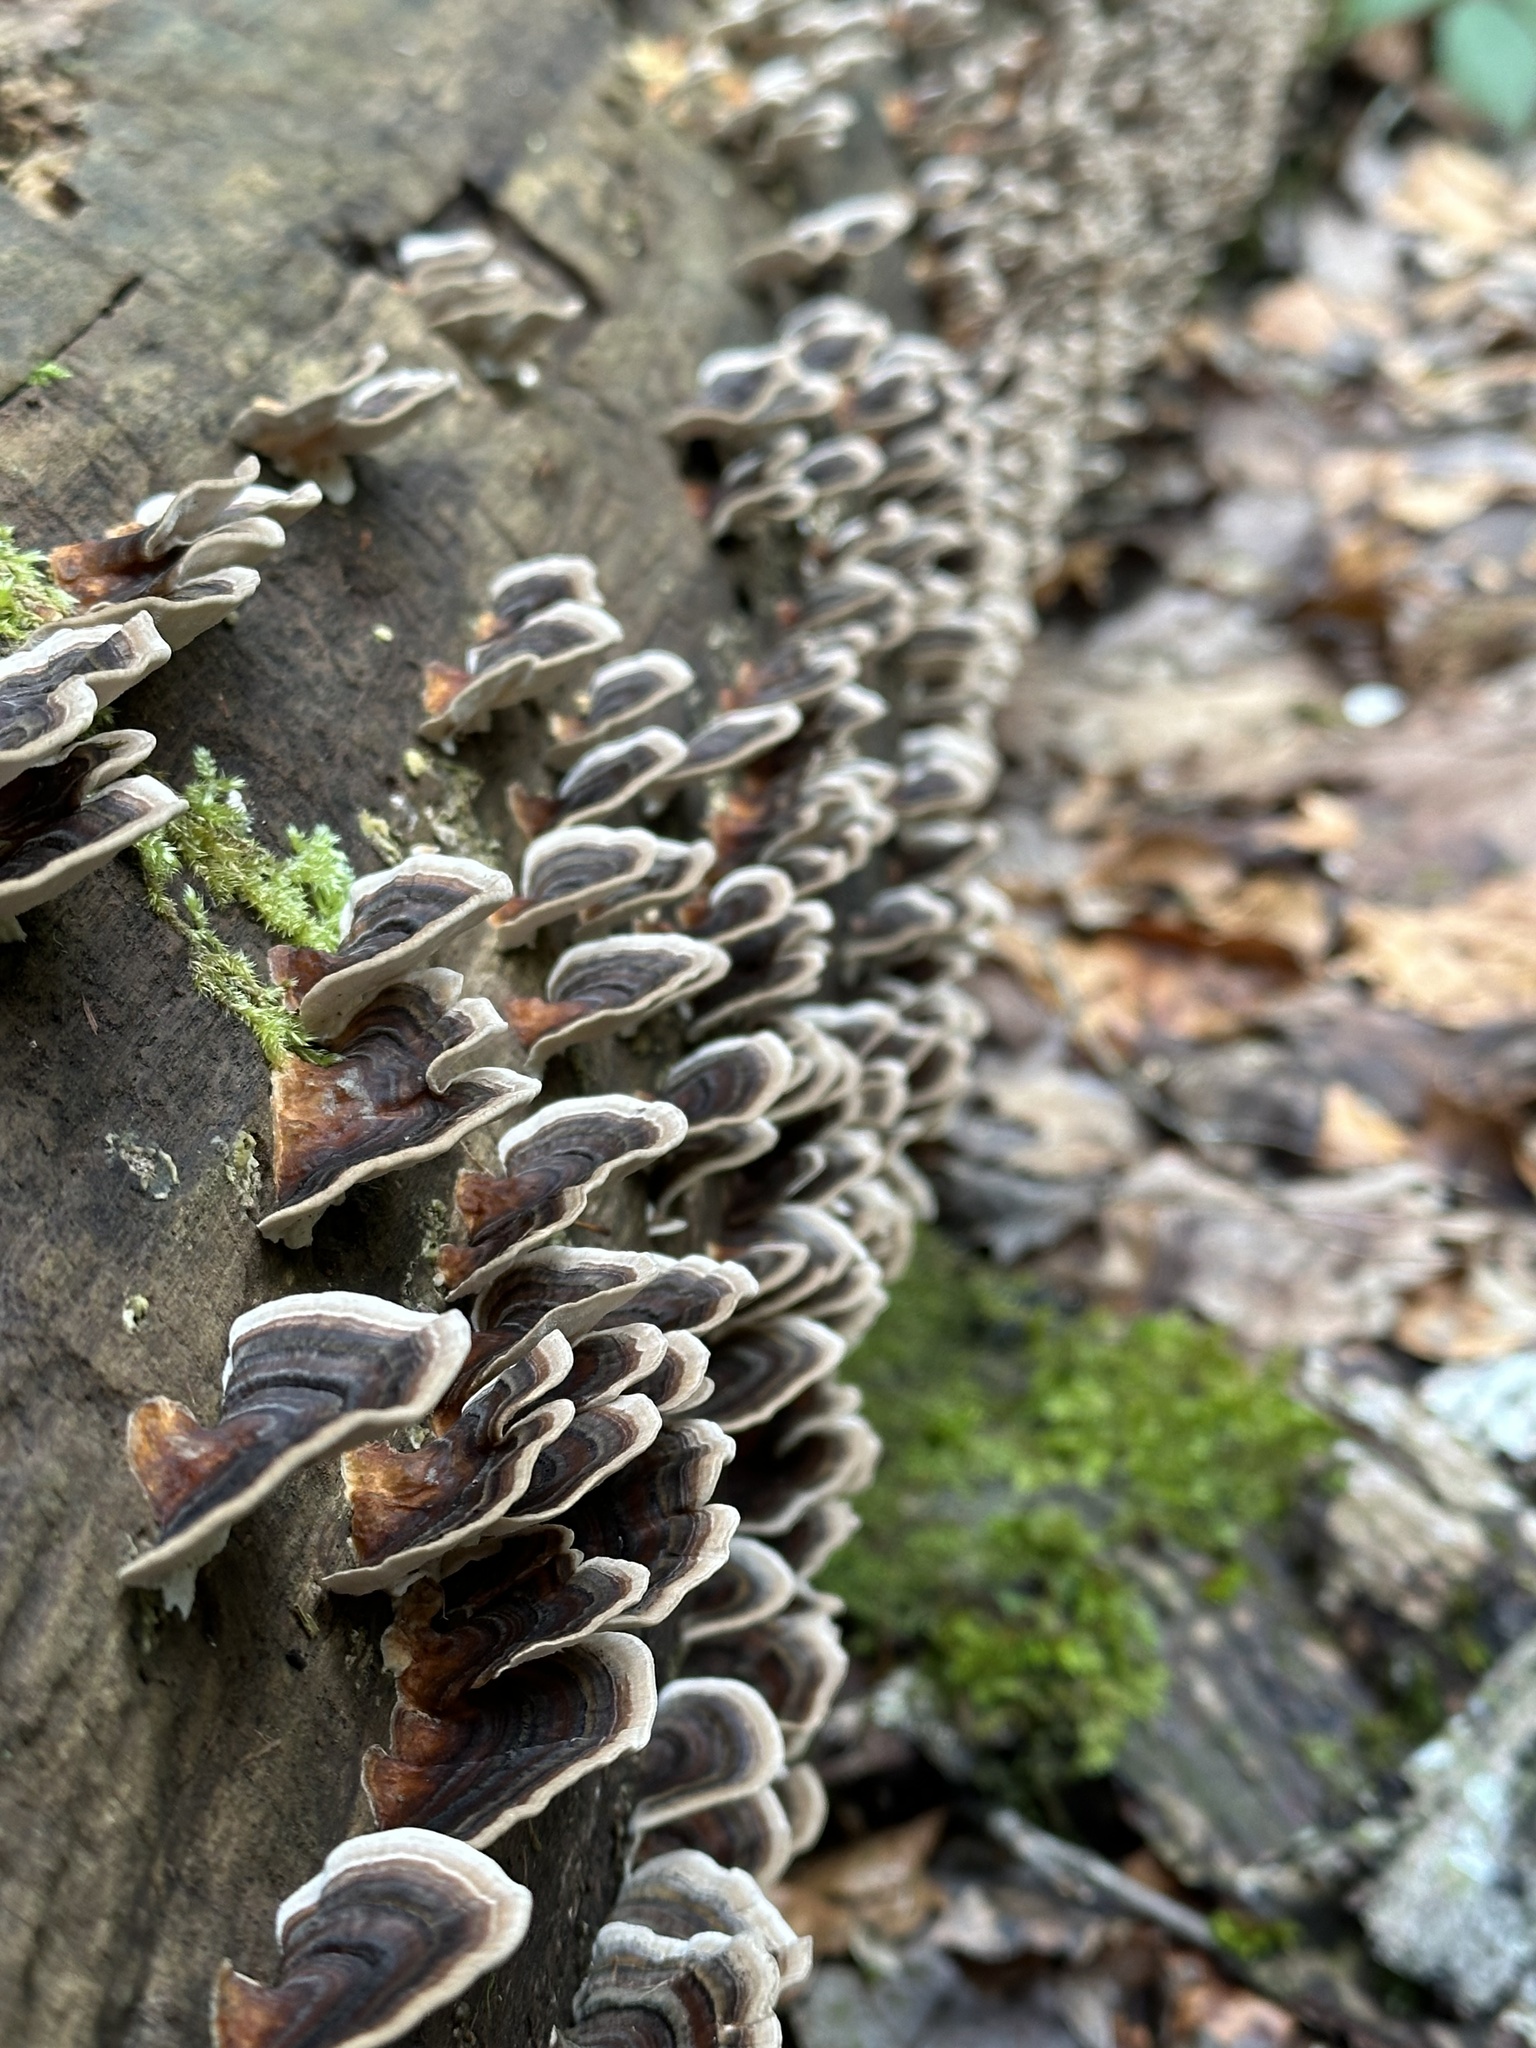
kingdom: Fungi
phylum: Basidiomycota
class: Agaricomycetes
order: Polyporales
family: Polyporaceae
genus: Trametes
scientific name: Trametes versicolor
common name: Turkeytail
